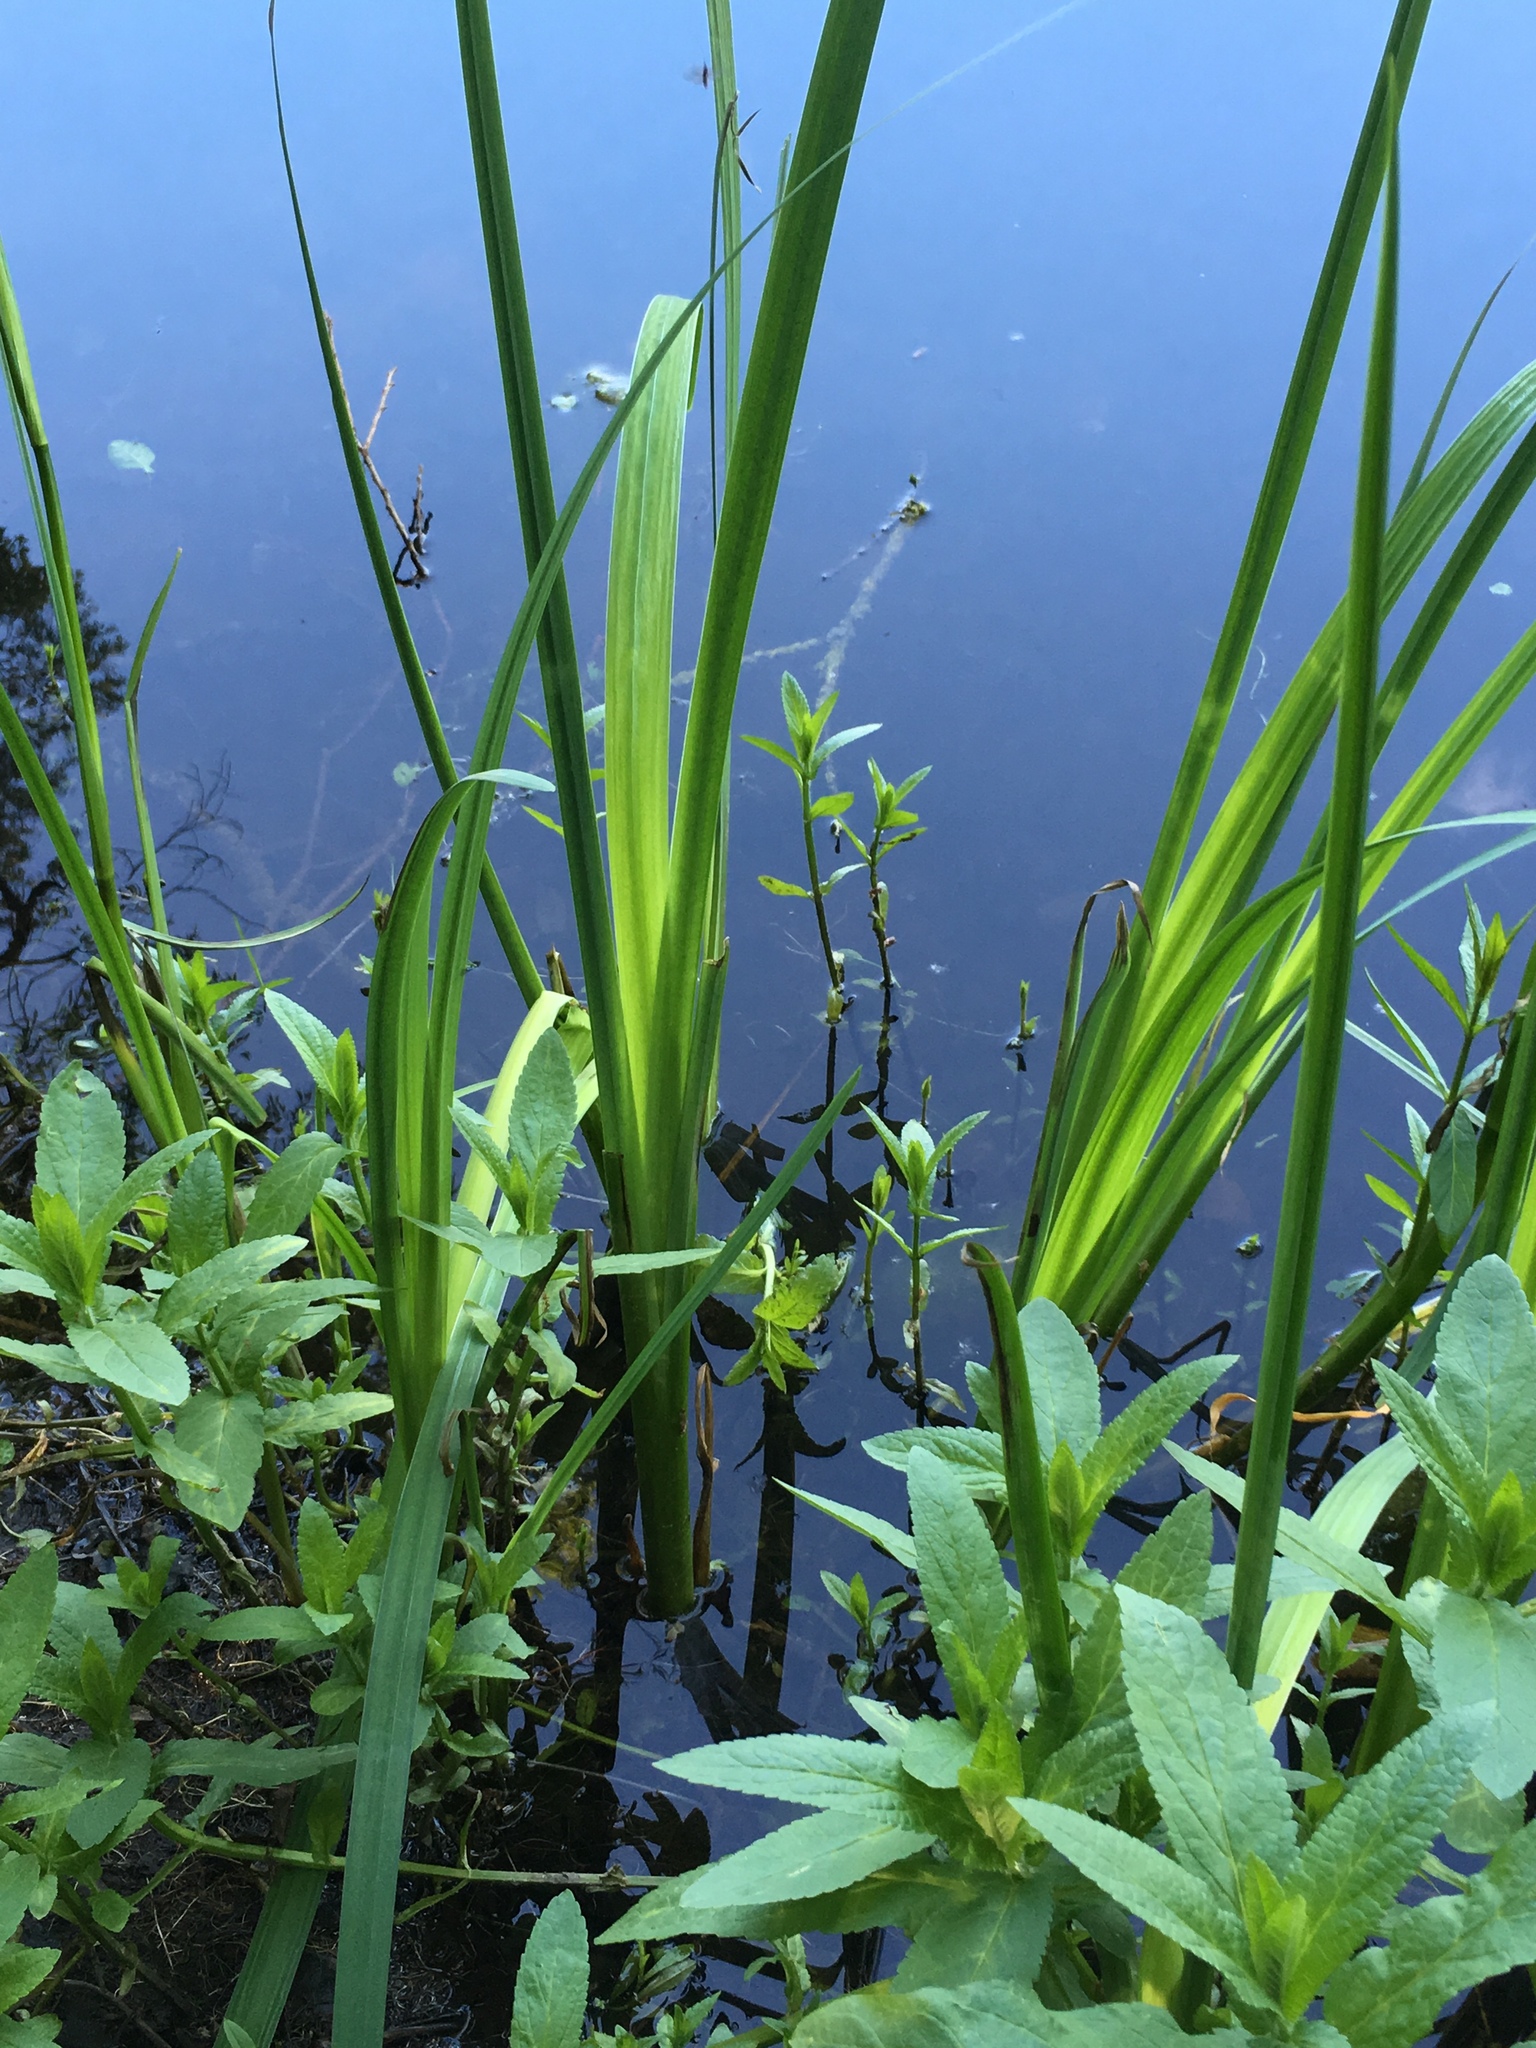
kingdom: Plantae
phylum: Tracheophyta
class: Liliopsida
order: Asparagales
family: Iridaceae
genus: Iris
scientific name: Iris pseudacorus
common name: Yellow flag
